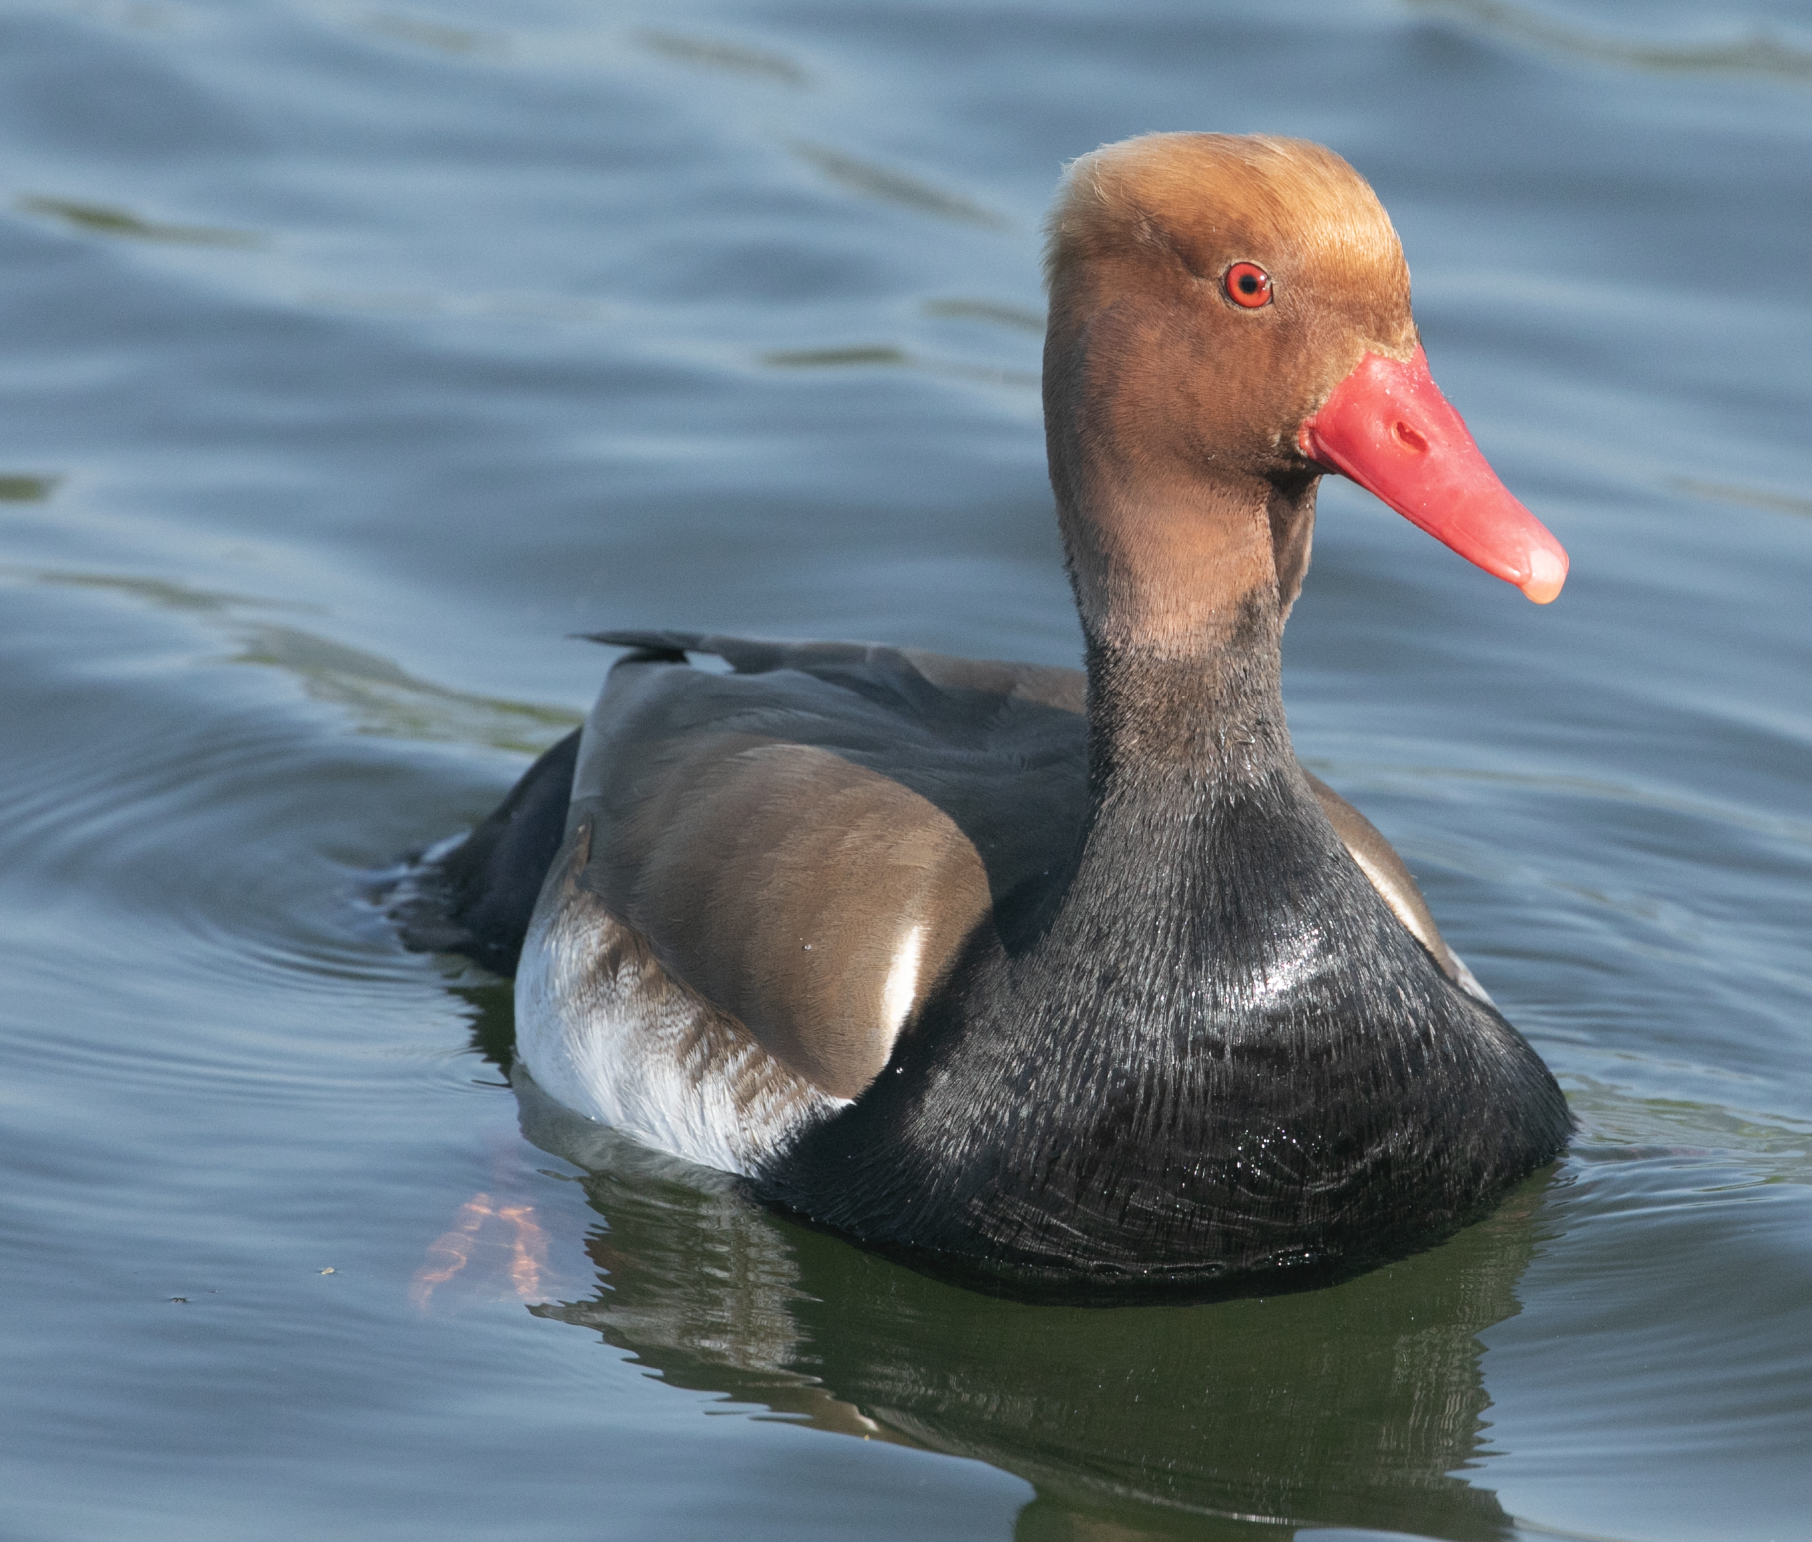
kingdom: Animalia
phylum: Chordata
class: Aves
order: Anseriformes
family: Anatidae
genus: Netta
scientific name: Netta rufina
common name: Red-crested pochard
